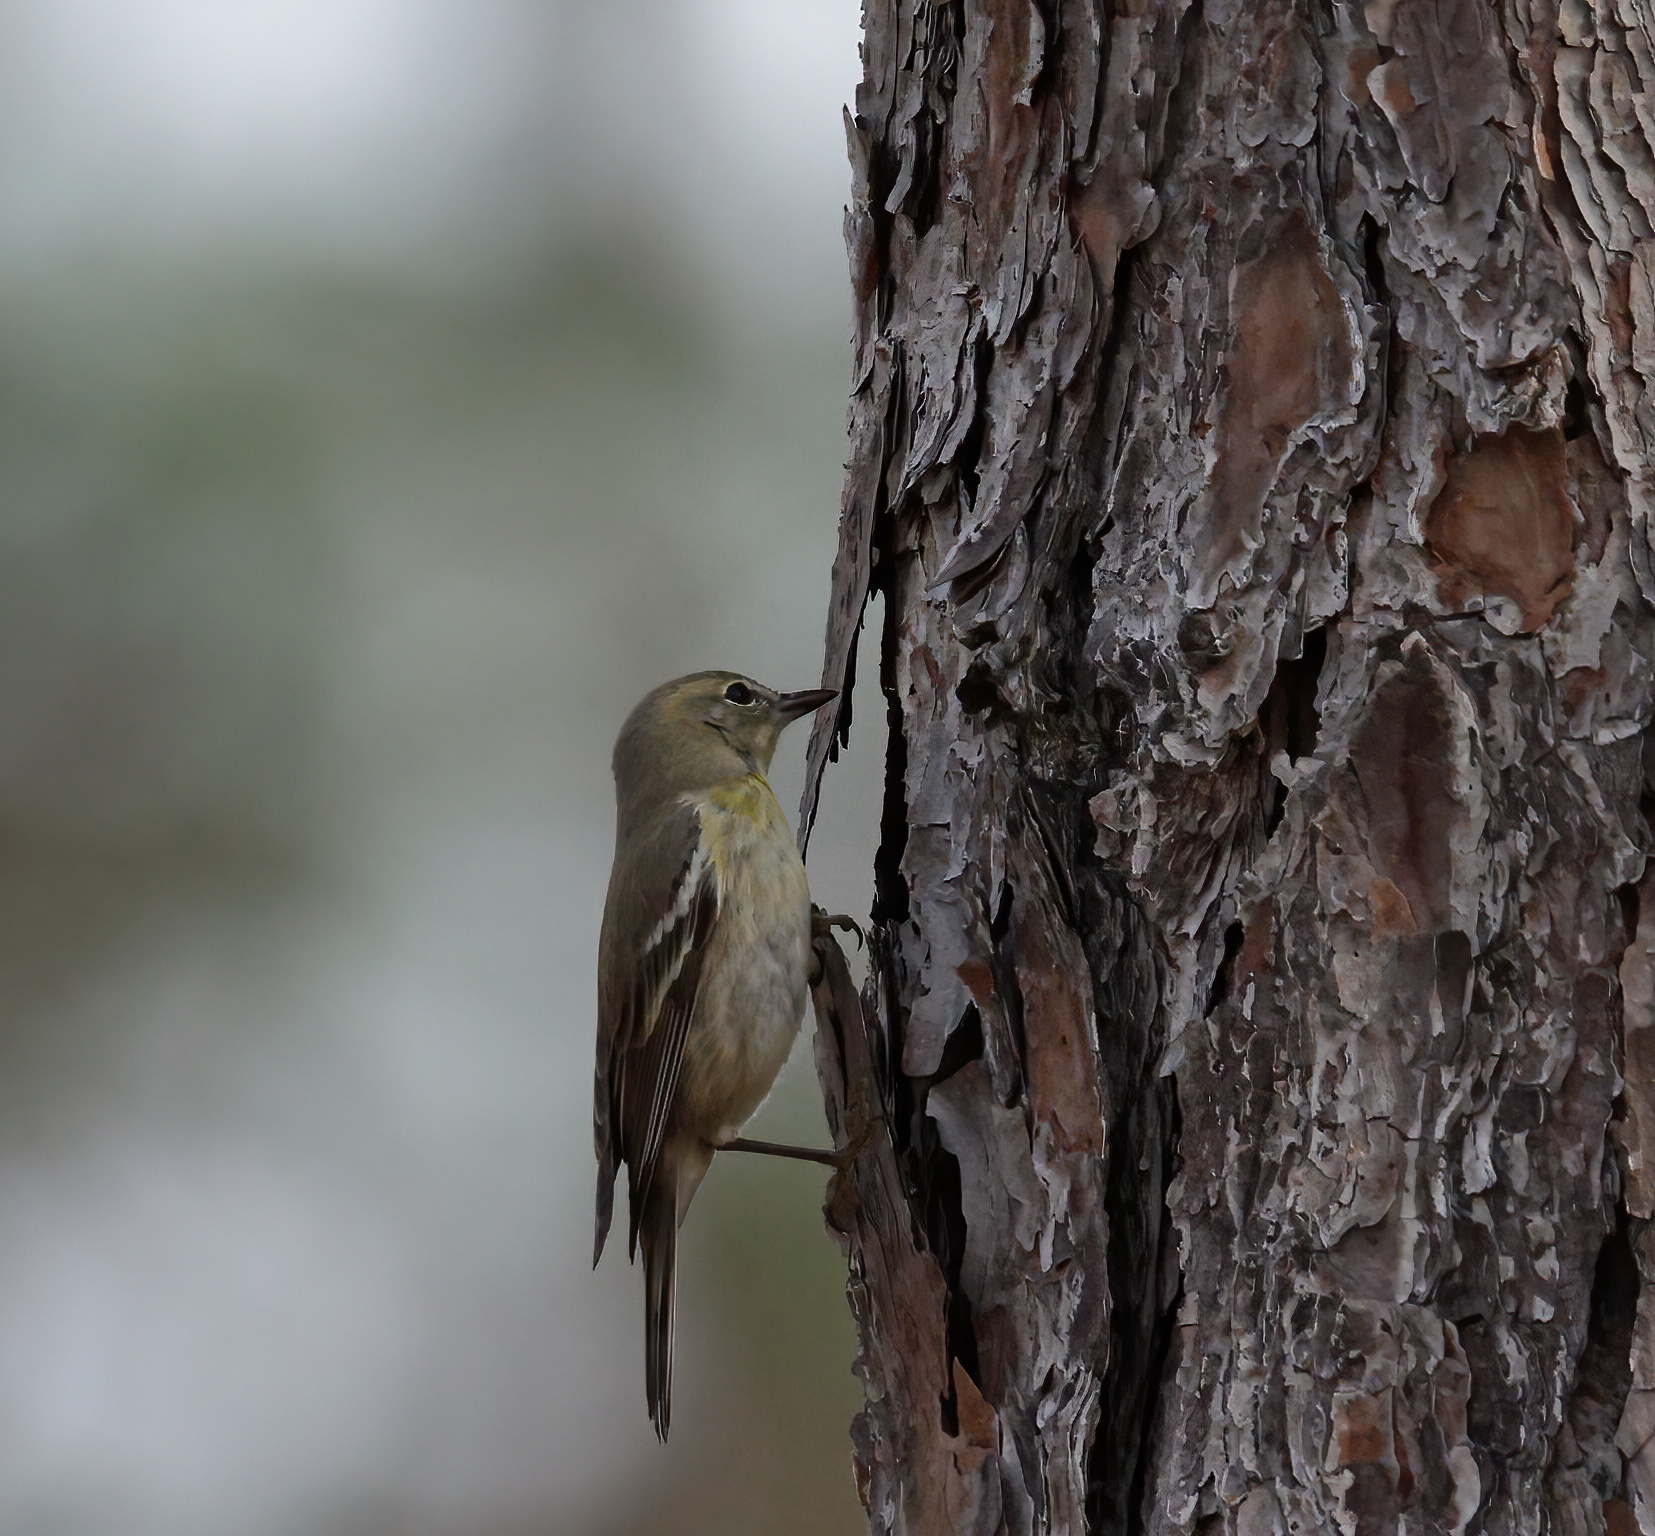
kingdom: Animalia
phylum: Chordata
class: Aves
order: Passeriformes
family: Parulidae
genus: Setophaga
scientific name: Setophaga pinus
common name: Pine warbler
